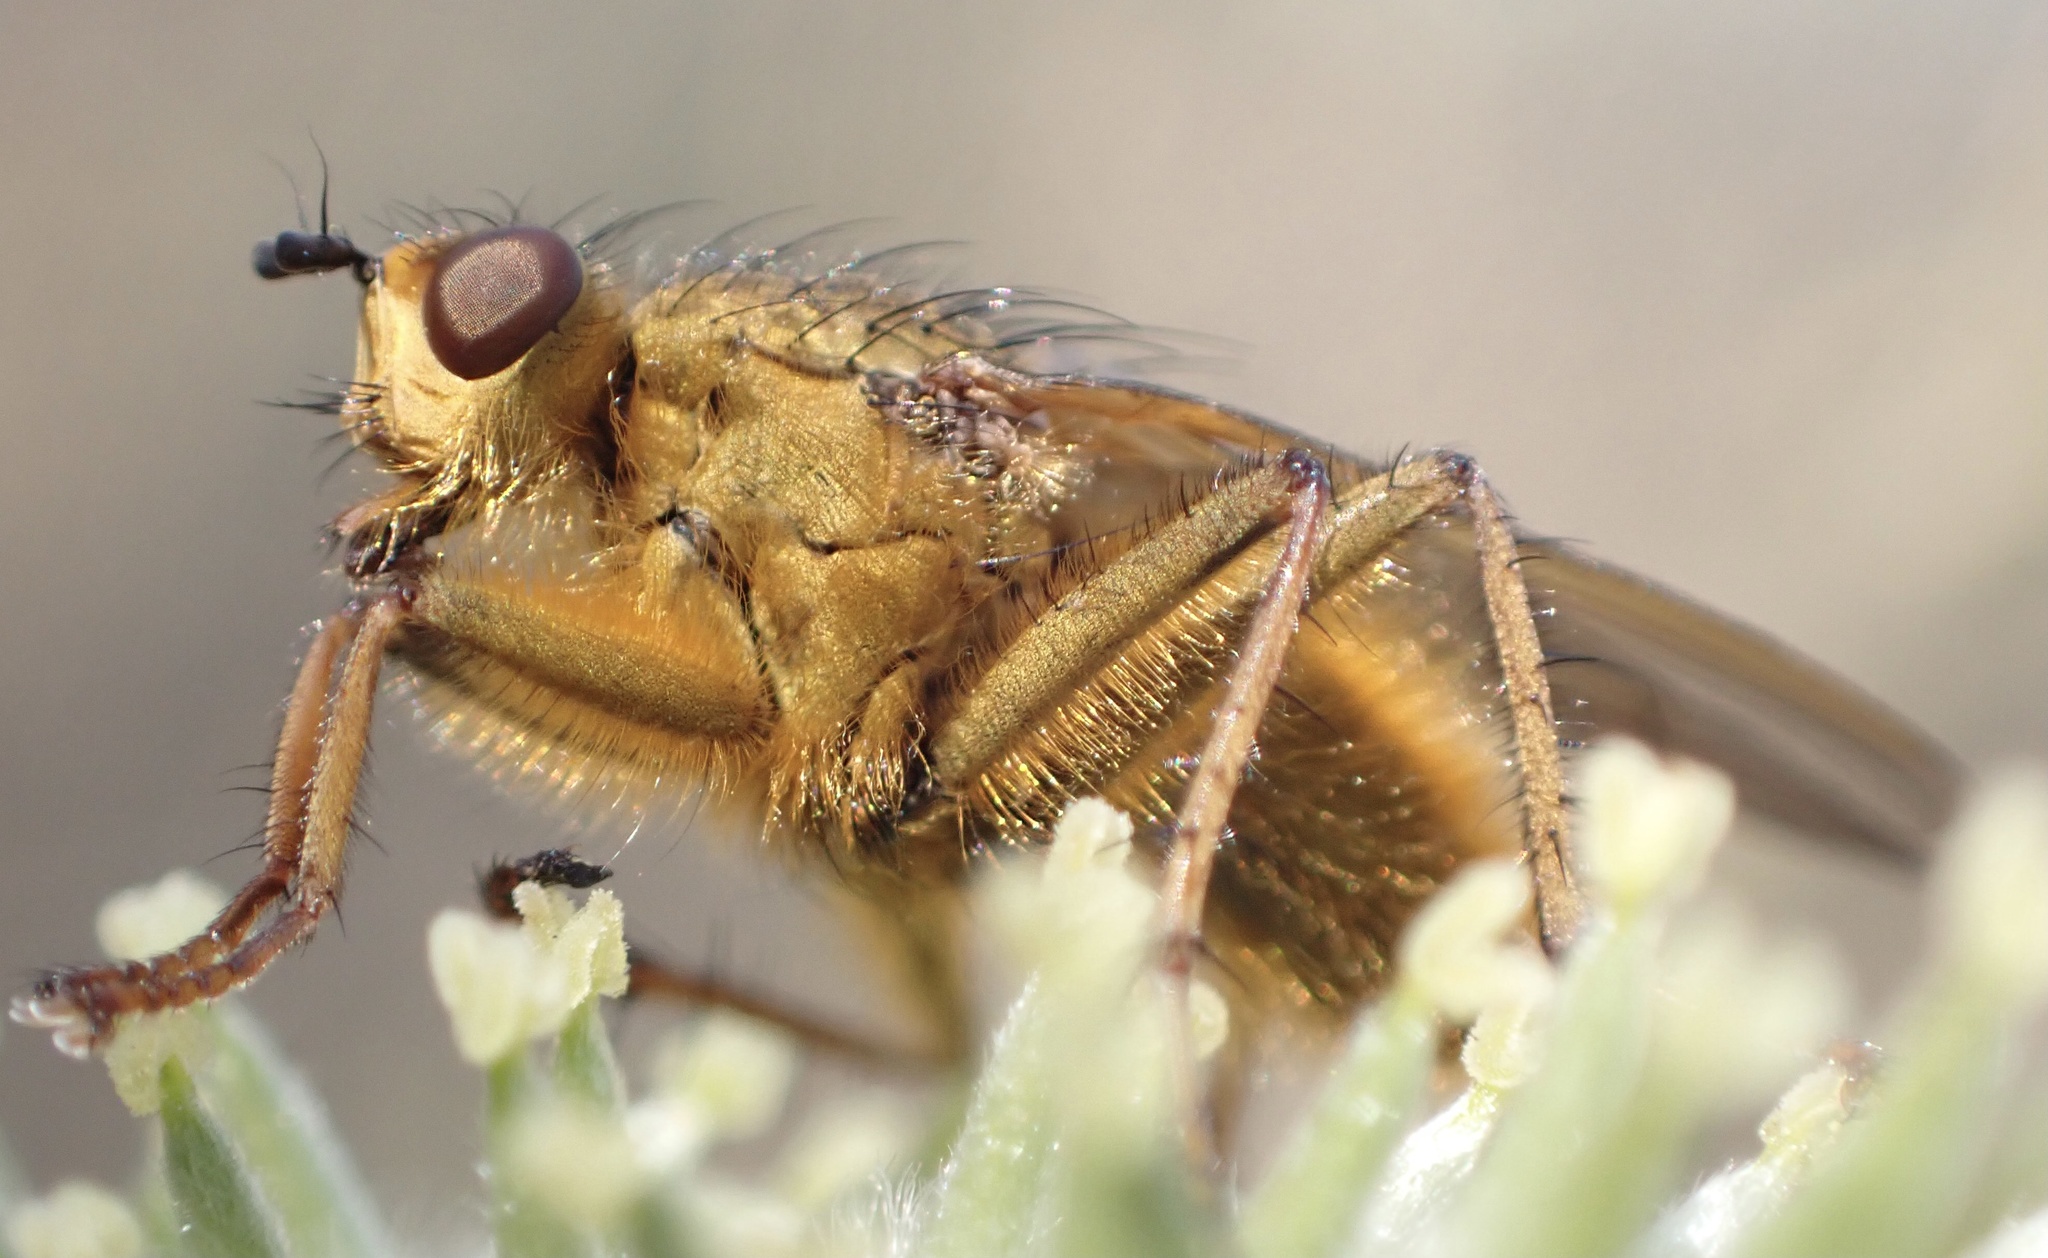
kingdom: Animalia
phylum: Arthropoda
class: Insecta
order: Diptera
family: Scathophagidae
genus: Scathophaga
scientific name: Scathophaga stercoraria
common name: Yellow dung fly
